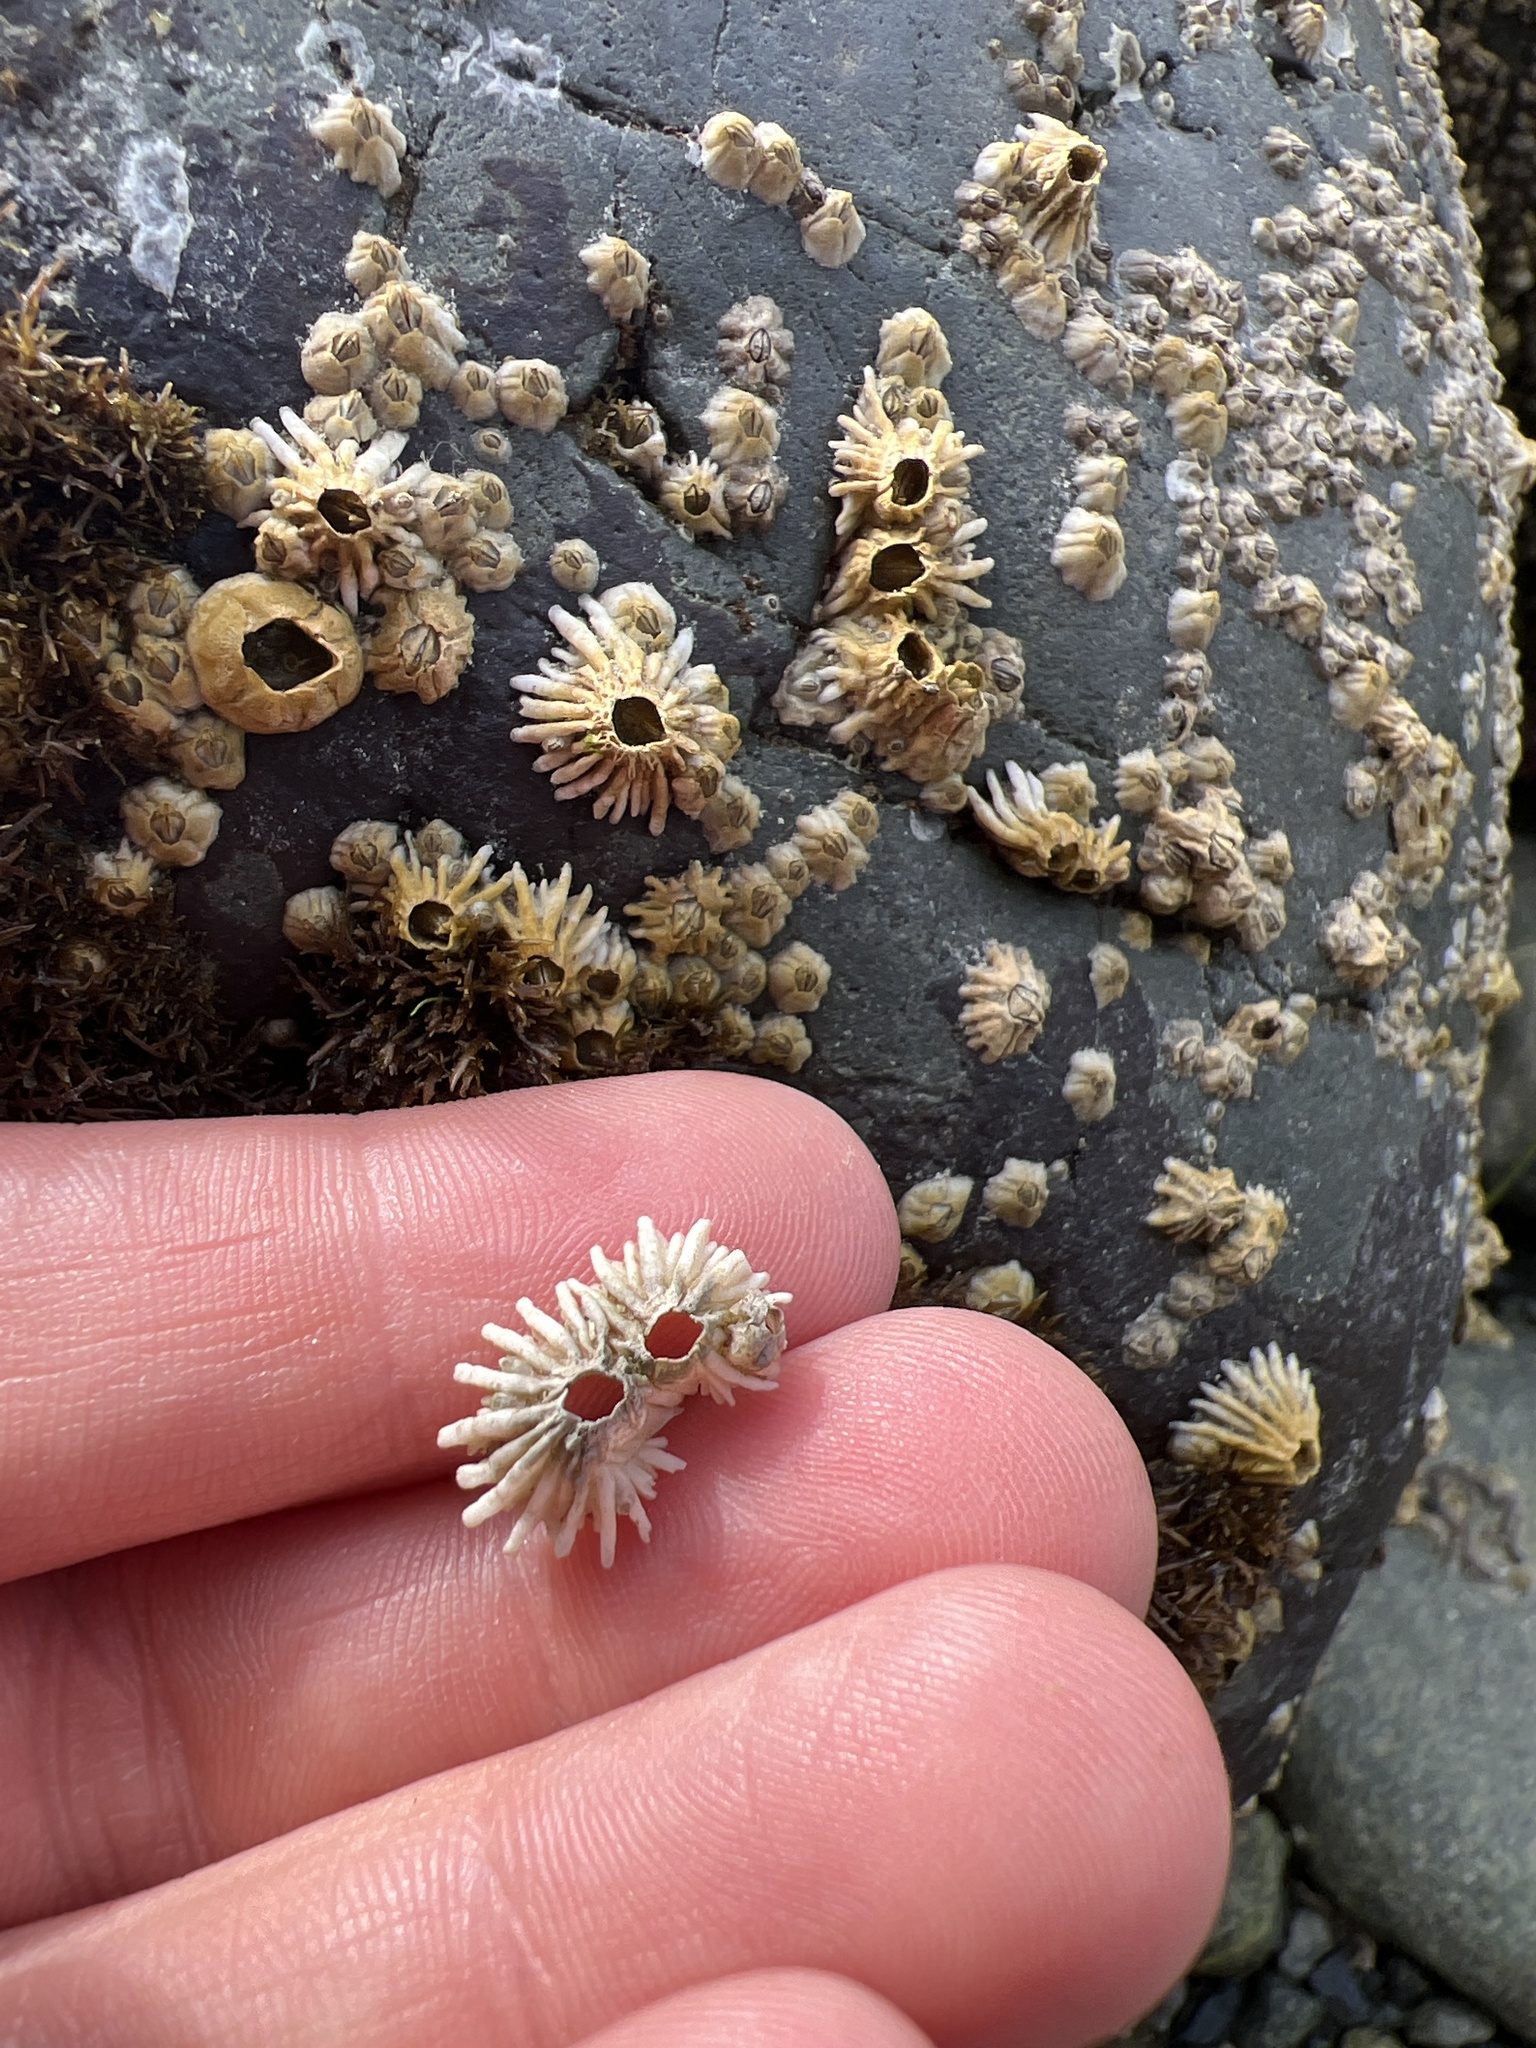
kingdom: Animalia
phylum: Arthropoda
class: Maxillopoda
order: Sessilia
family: Archaeobalanidae
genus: Semibalanus
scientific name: Semibalanus cariosus
